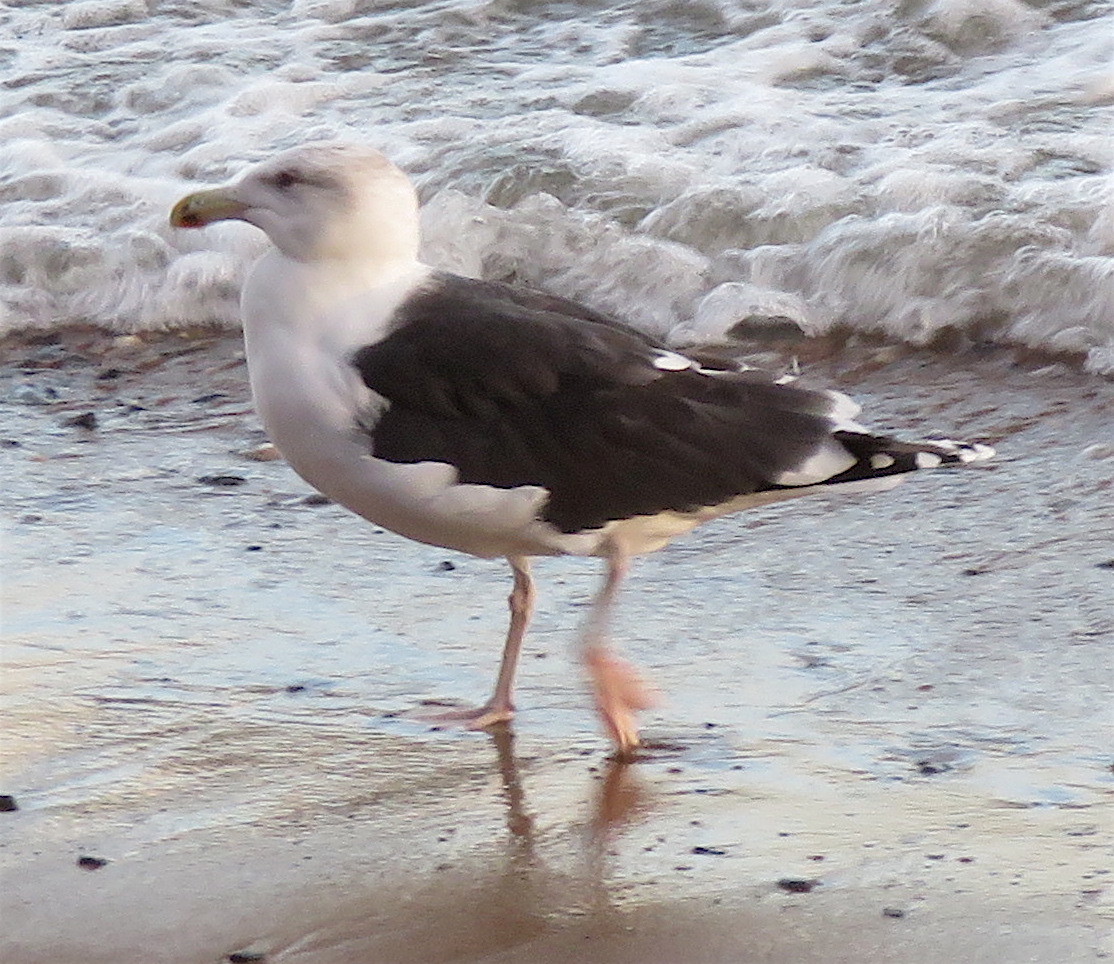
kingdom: Animalia
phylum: Chordata
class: Aves
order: Charadriiformes
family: Laridae
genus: Larus
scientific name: Larus marinus
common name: Great black-backed gull
